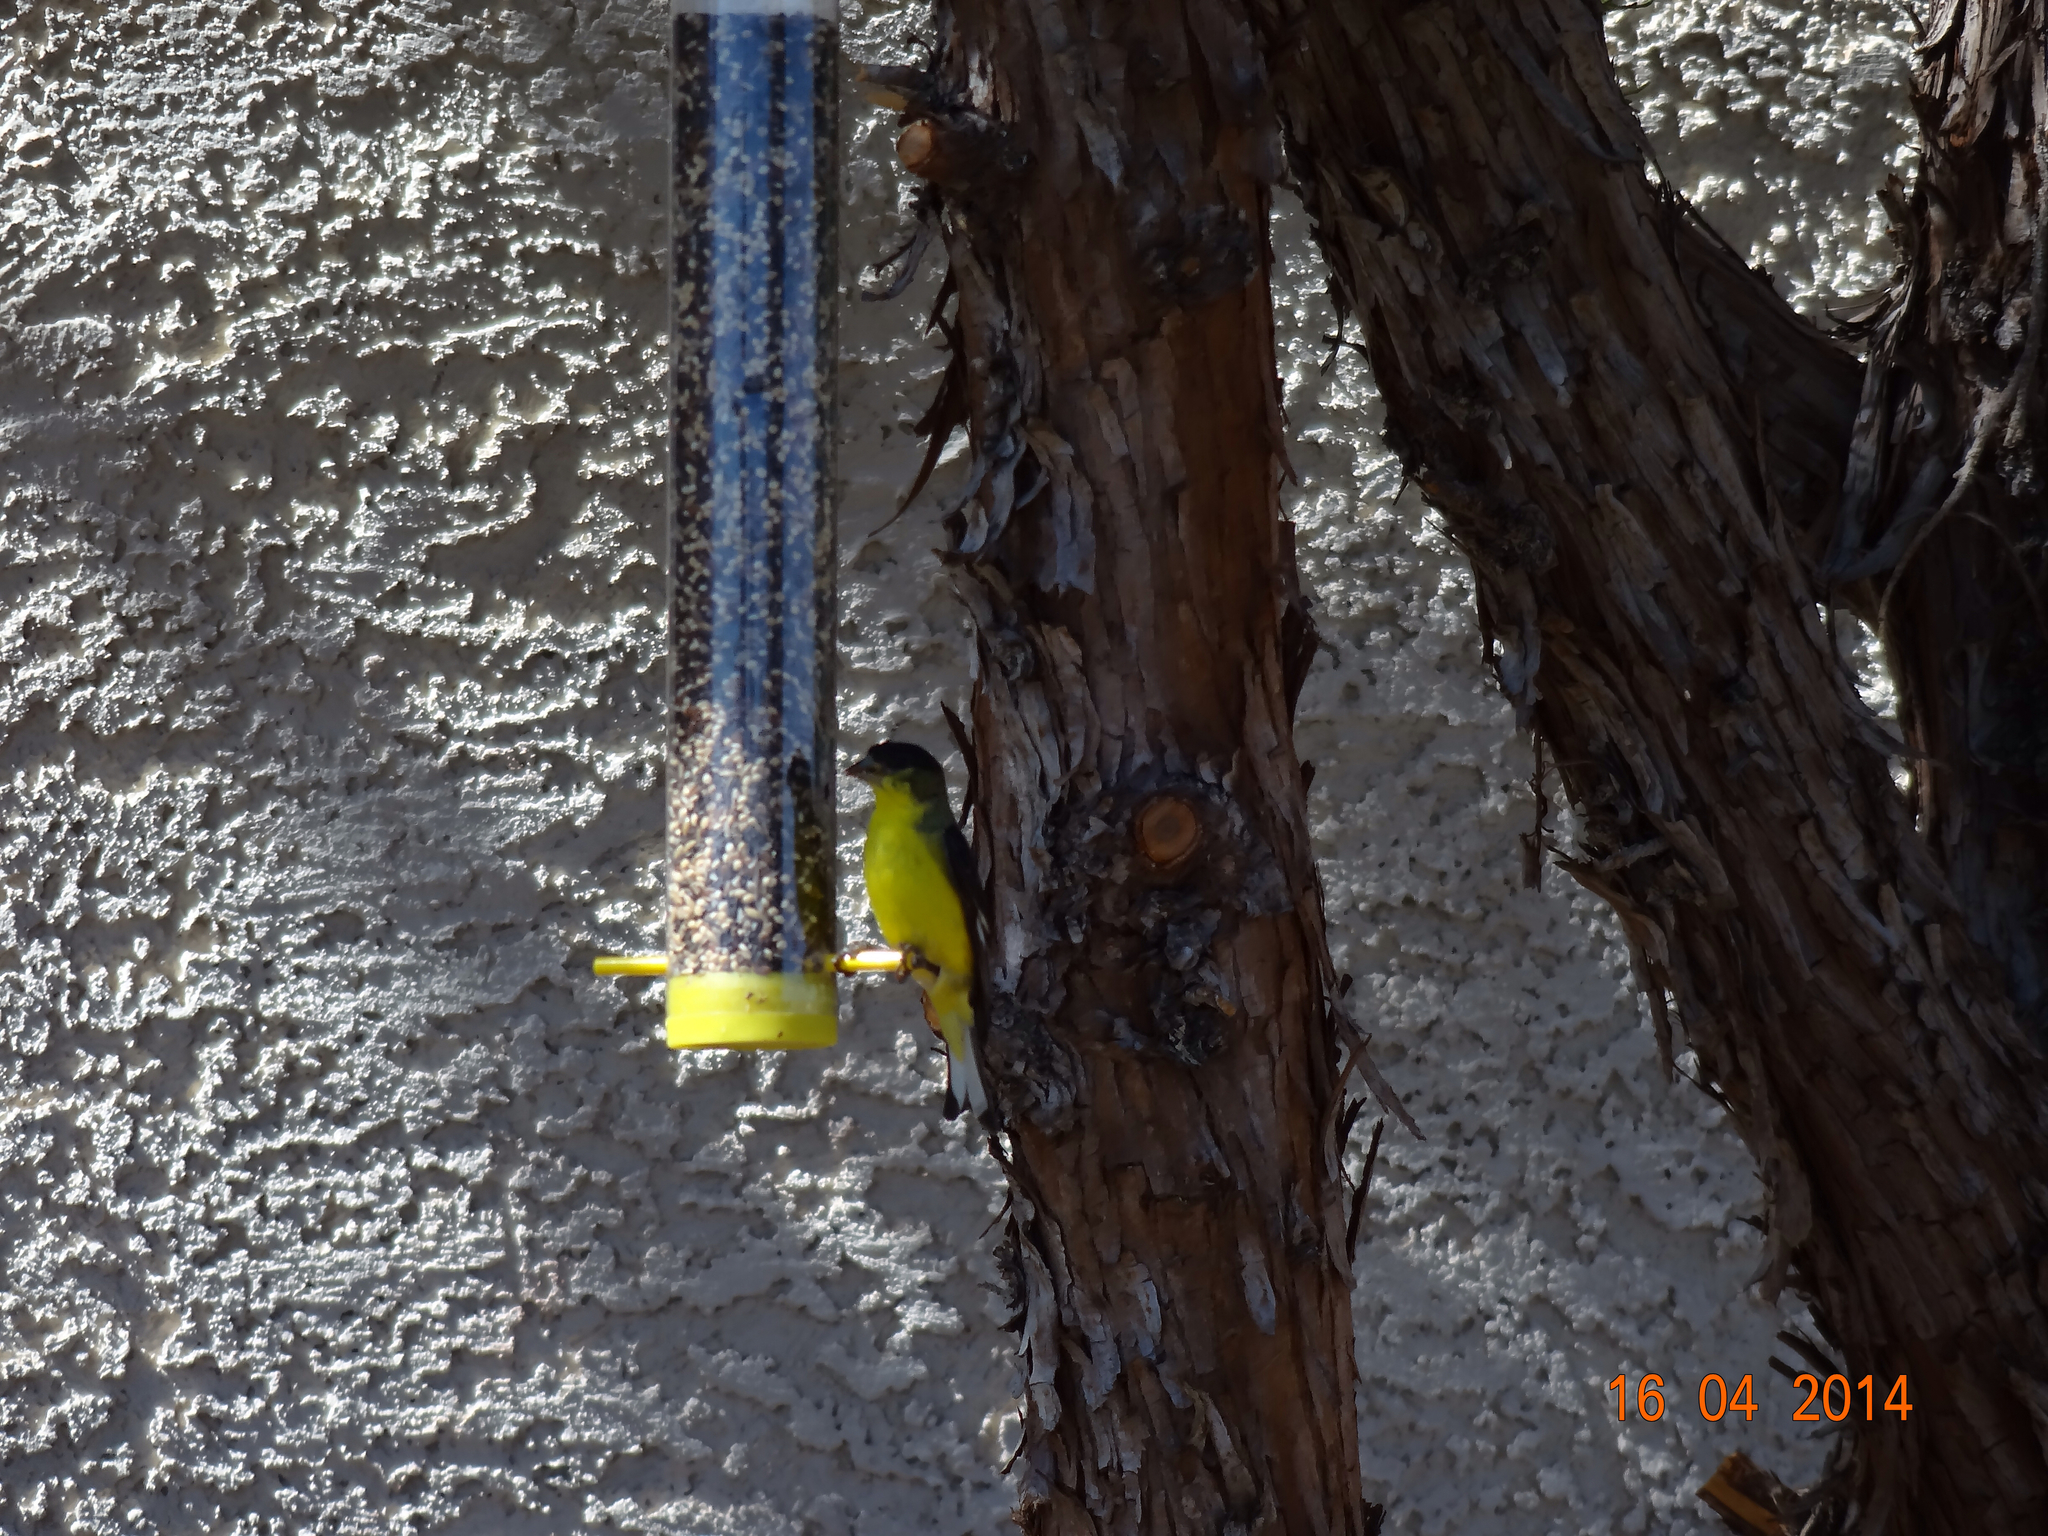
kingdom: Animalia
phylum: Chordata
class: Aves
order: Passeriformes
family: Fringillidae
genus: Spinus
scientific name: Spinus psaltria
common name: Lesser goldfinch
